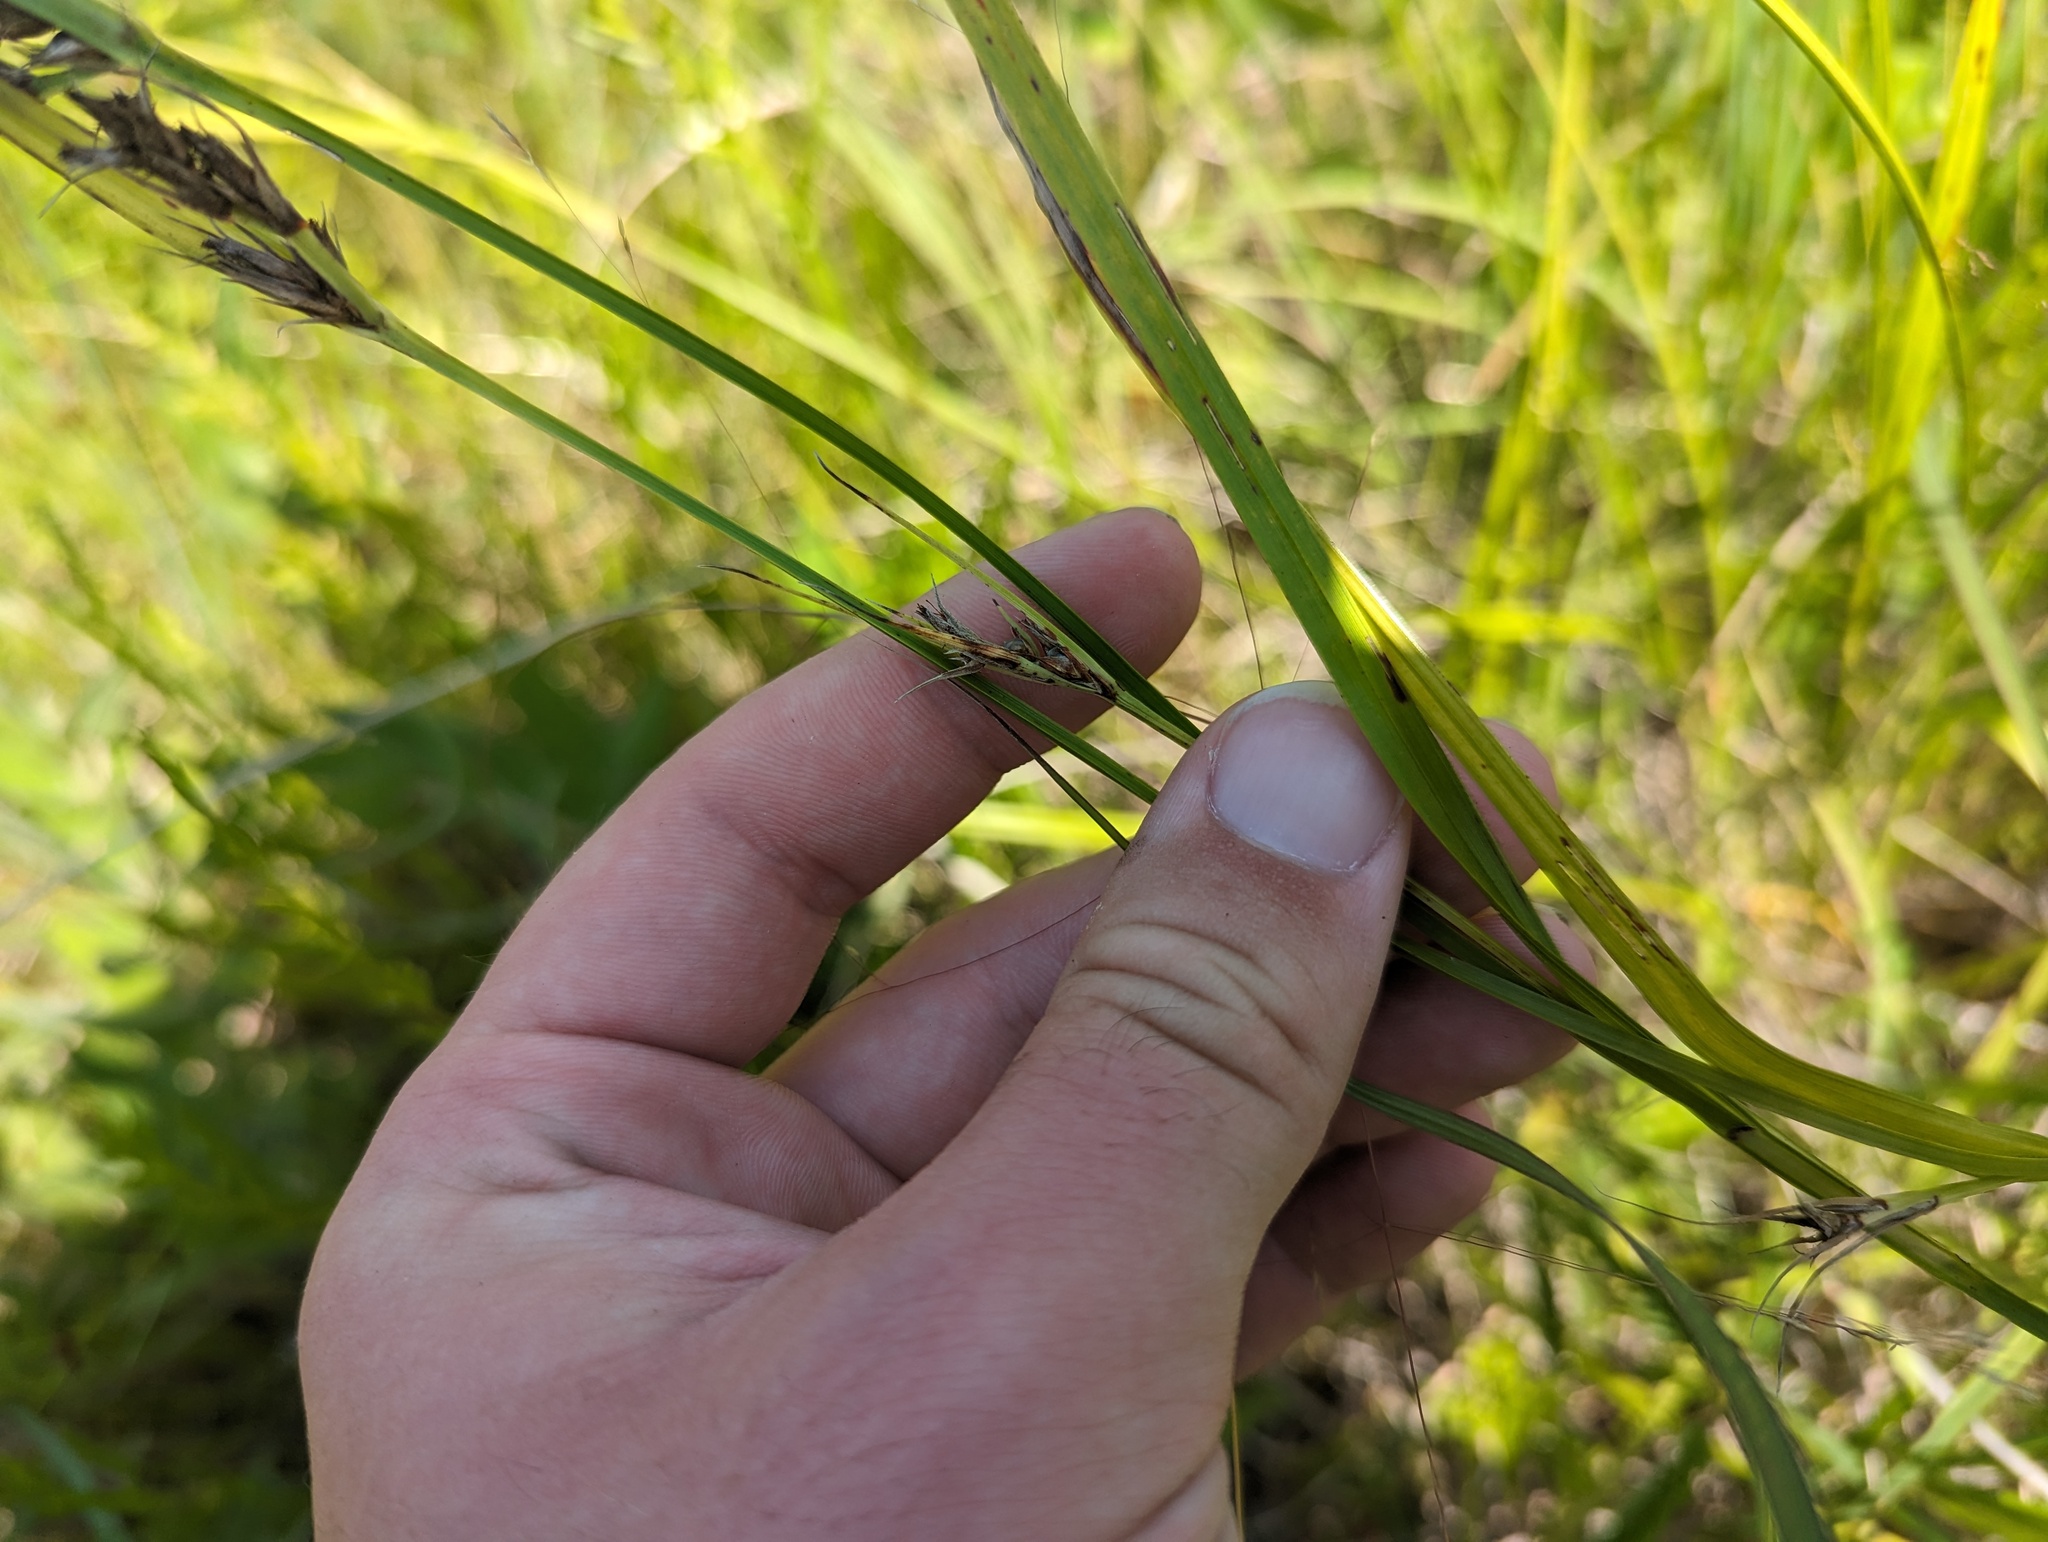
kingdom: Plantae
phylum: Tracheophyta
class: Liliopsida
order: Poales
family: Cyperaceae
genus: Scleria
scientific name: Scleria triglomerata
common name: Whip nutrush
